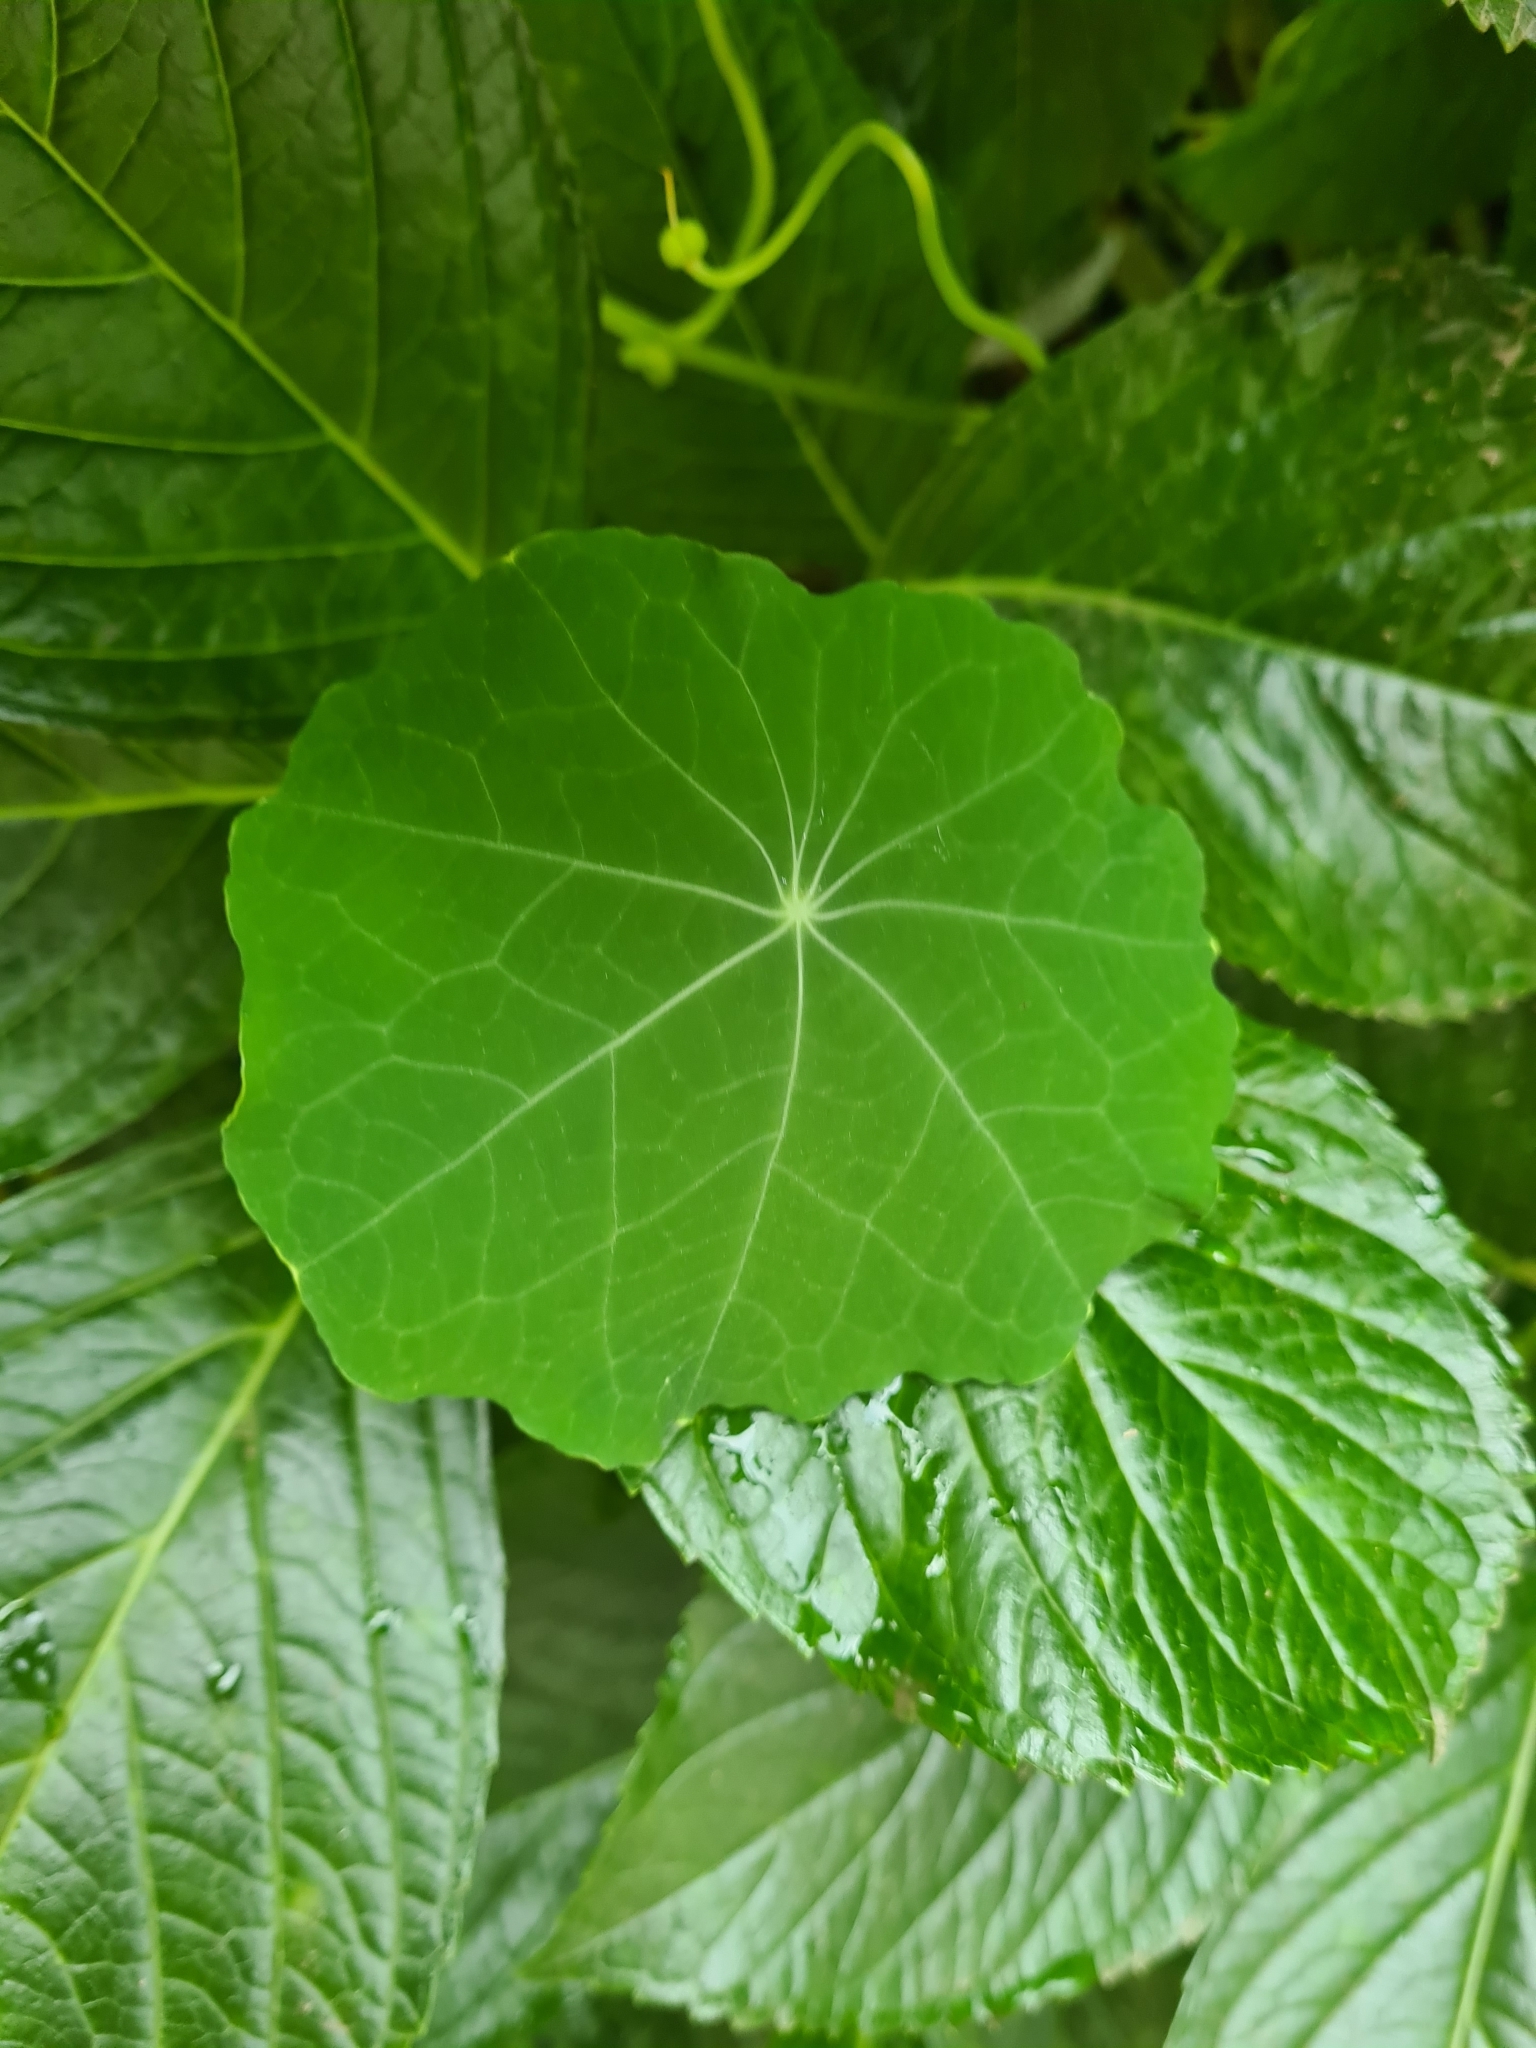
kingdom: Plantae
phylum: Tracheophyta
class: Magnoliopsida
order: Brassicales
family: Tropaeolaceae
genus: Tropaeolum
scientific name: Tropaeolum majus
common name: Nasturtium
